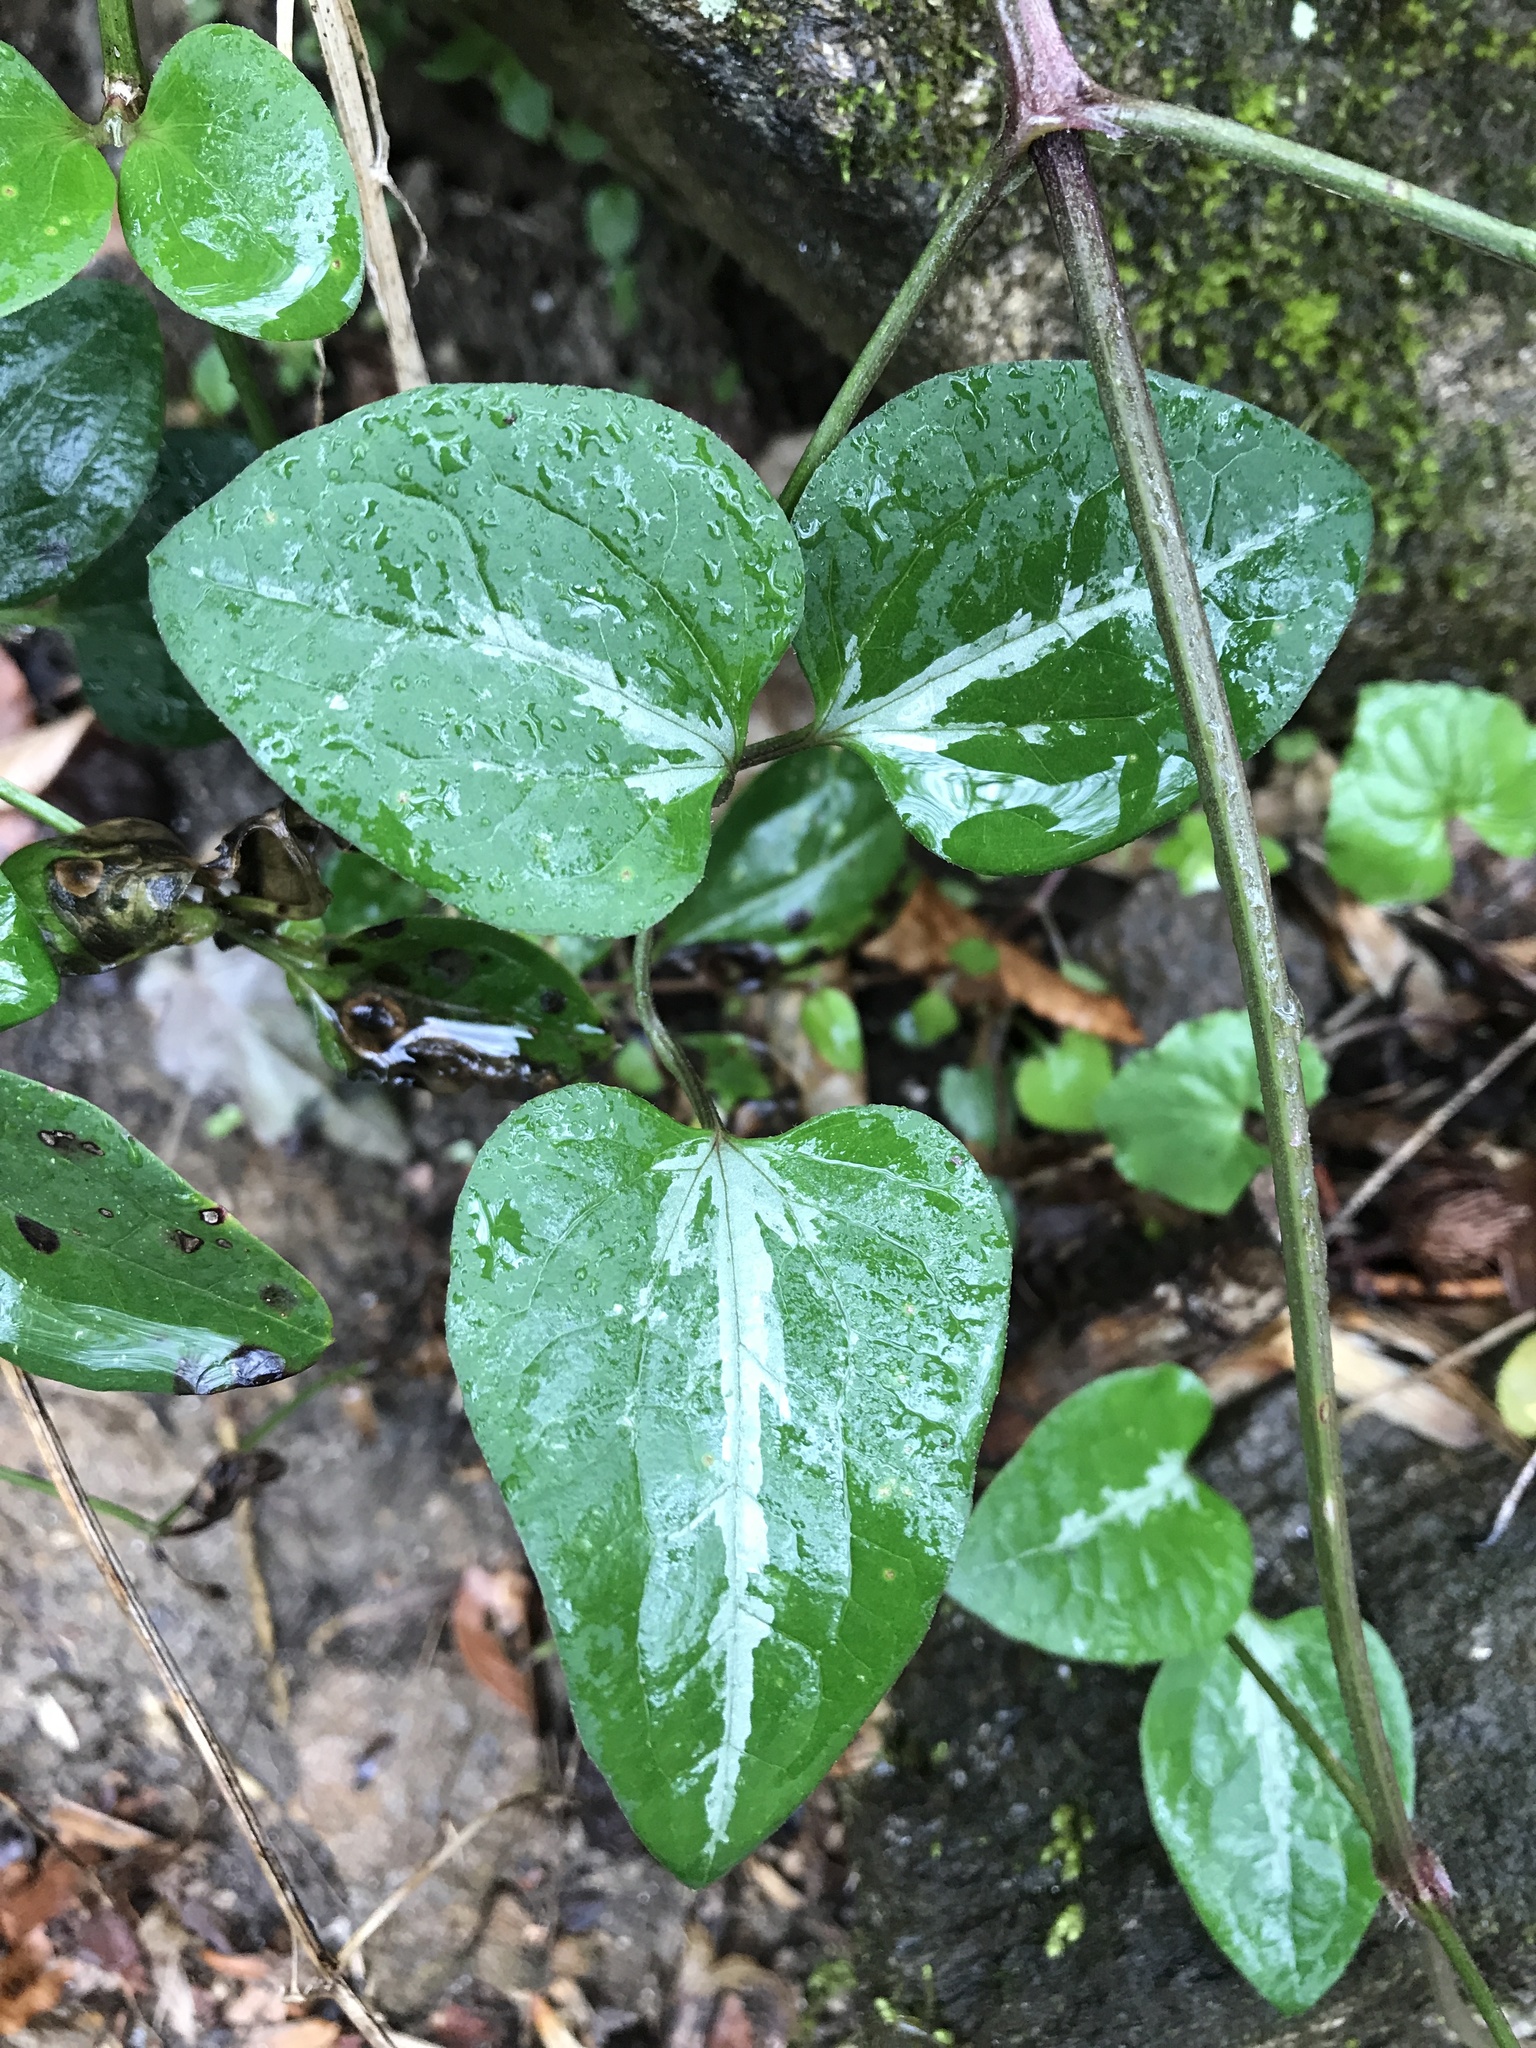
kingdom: Plantae
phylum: Tracheophyta
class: Magnoliopsida
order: Ranunculales
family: Ranunculaceae
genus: Clematis
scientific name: Clematis terniflora
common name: Sweet autumn clematis
